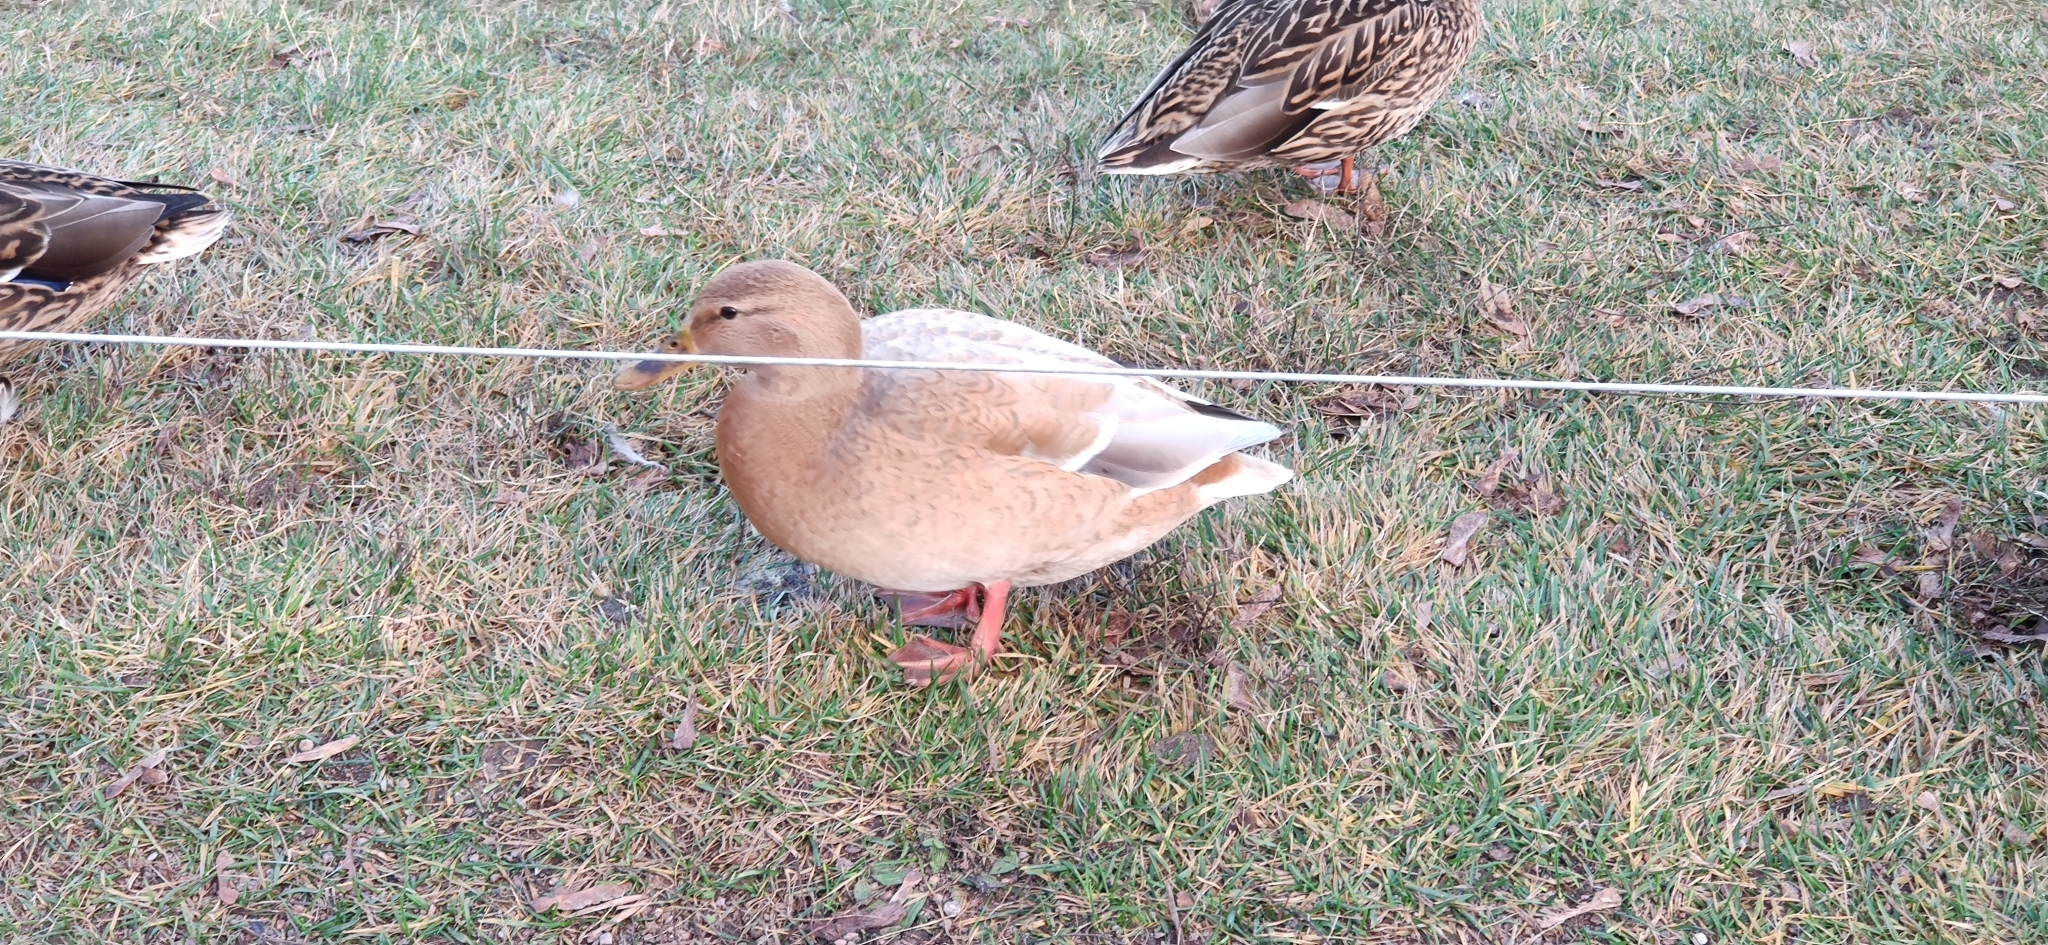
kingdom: Animalia
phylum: Chordata
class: Aves
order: Anseriformes
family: Anatidae
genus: Anas
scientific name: Anas platyrhynchos
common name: Mallard
